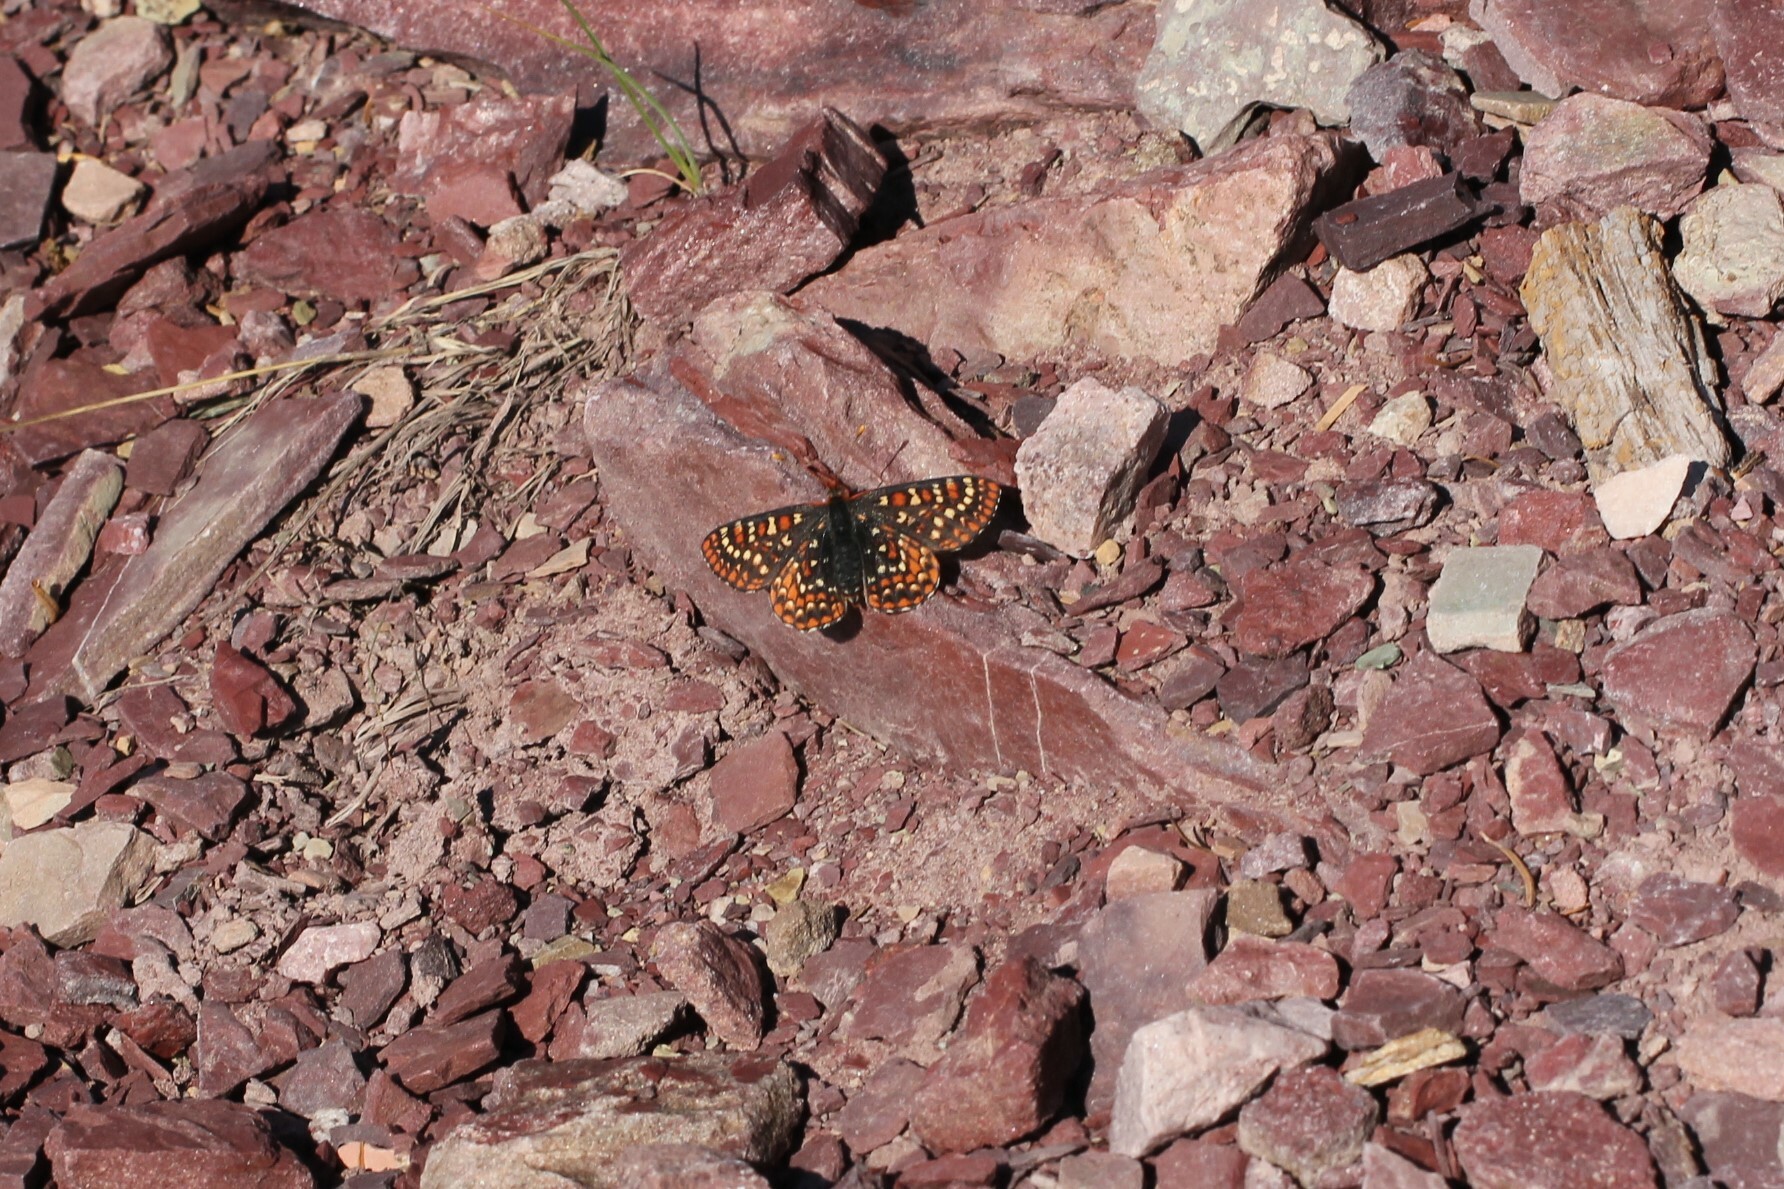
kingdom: Animalia
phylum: Arthropoda
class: Insecta
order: Lepidoptera
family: Nymphalidae
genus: Occidryas
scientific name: Occidryas anicia
